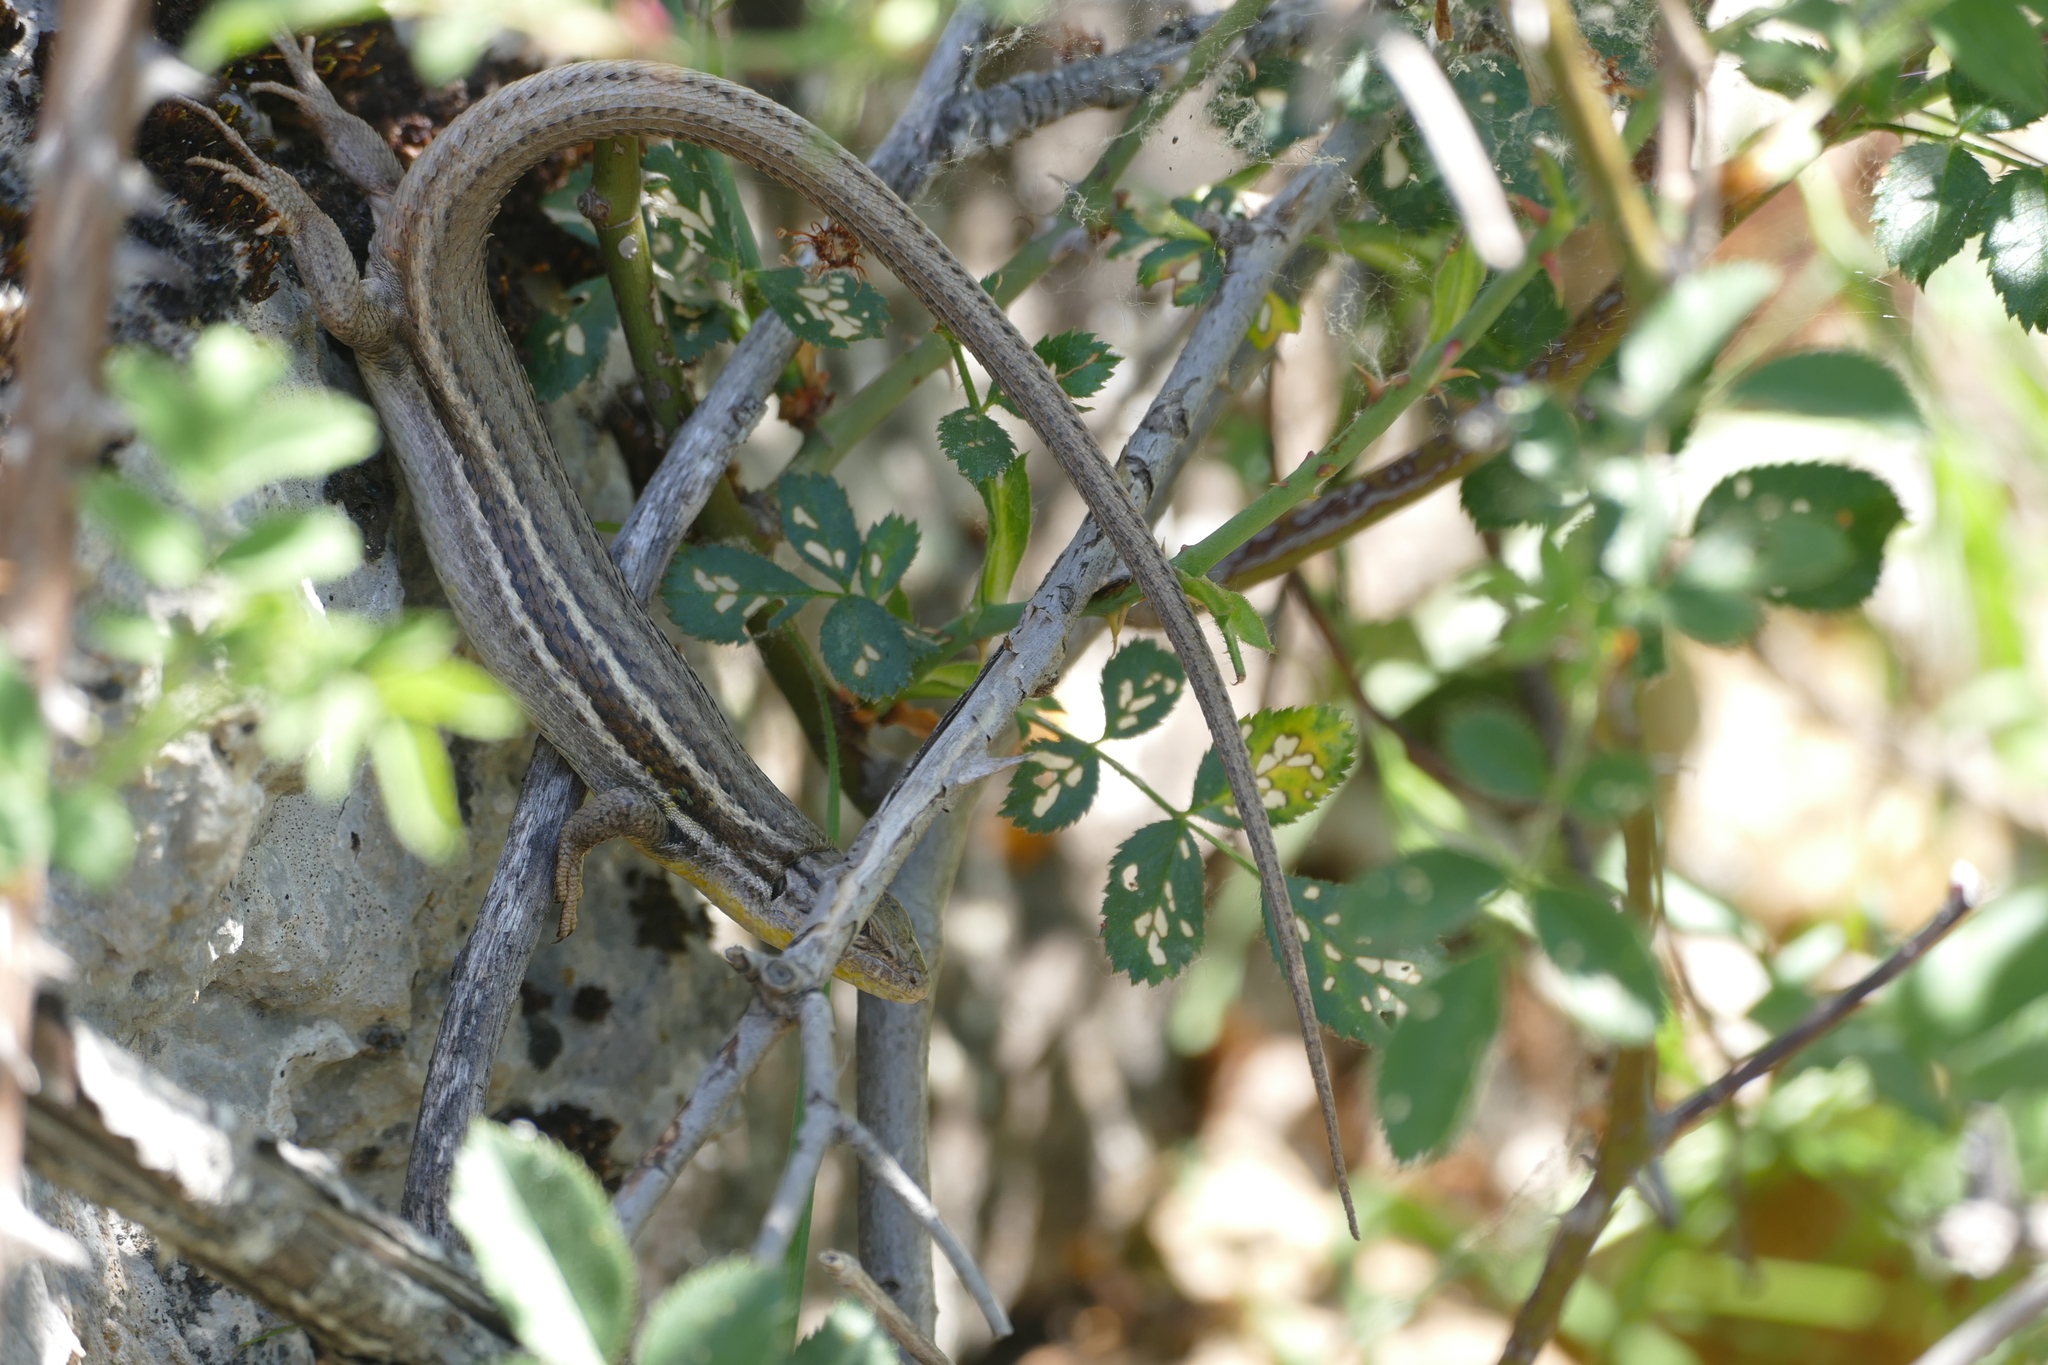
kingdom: Animalia
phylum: Chordata
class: Squamata
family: Lacertidae
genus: Psammodromus
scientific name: Psammodromus algirus
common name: Algerian psammodromus
